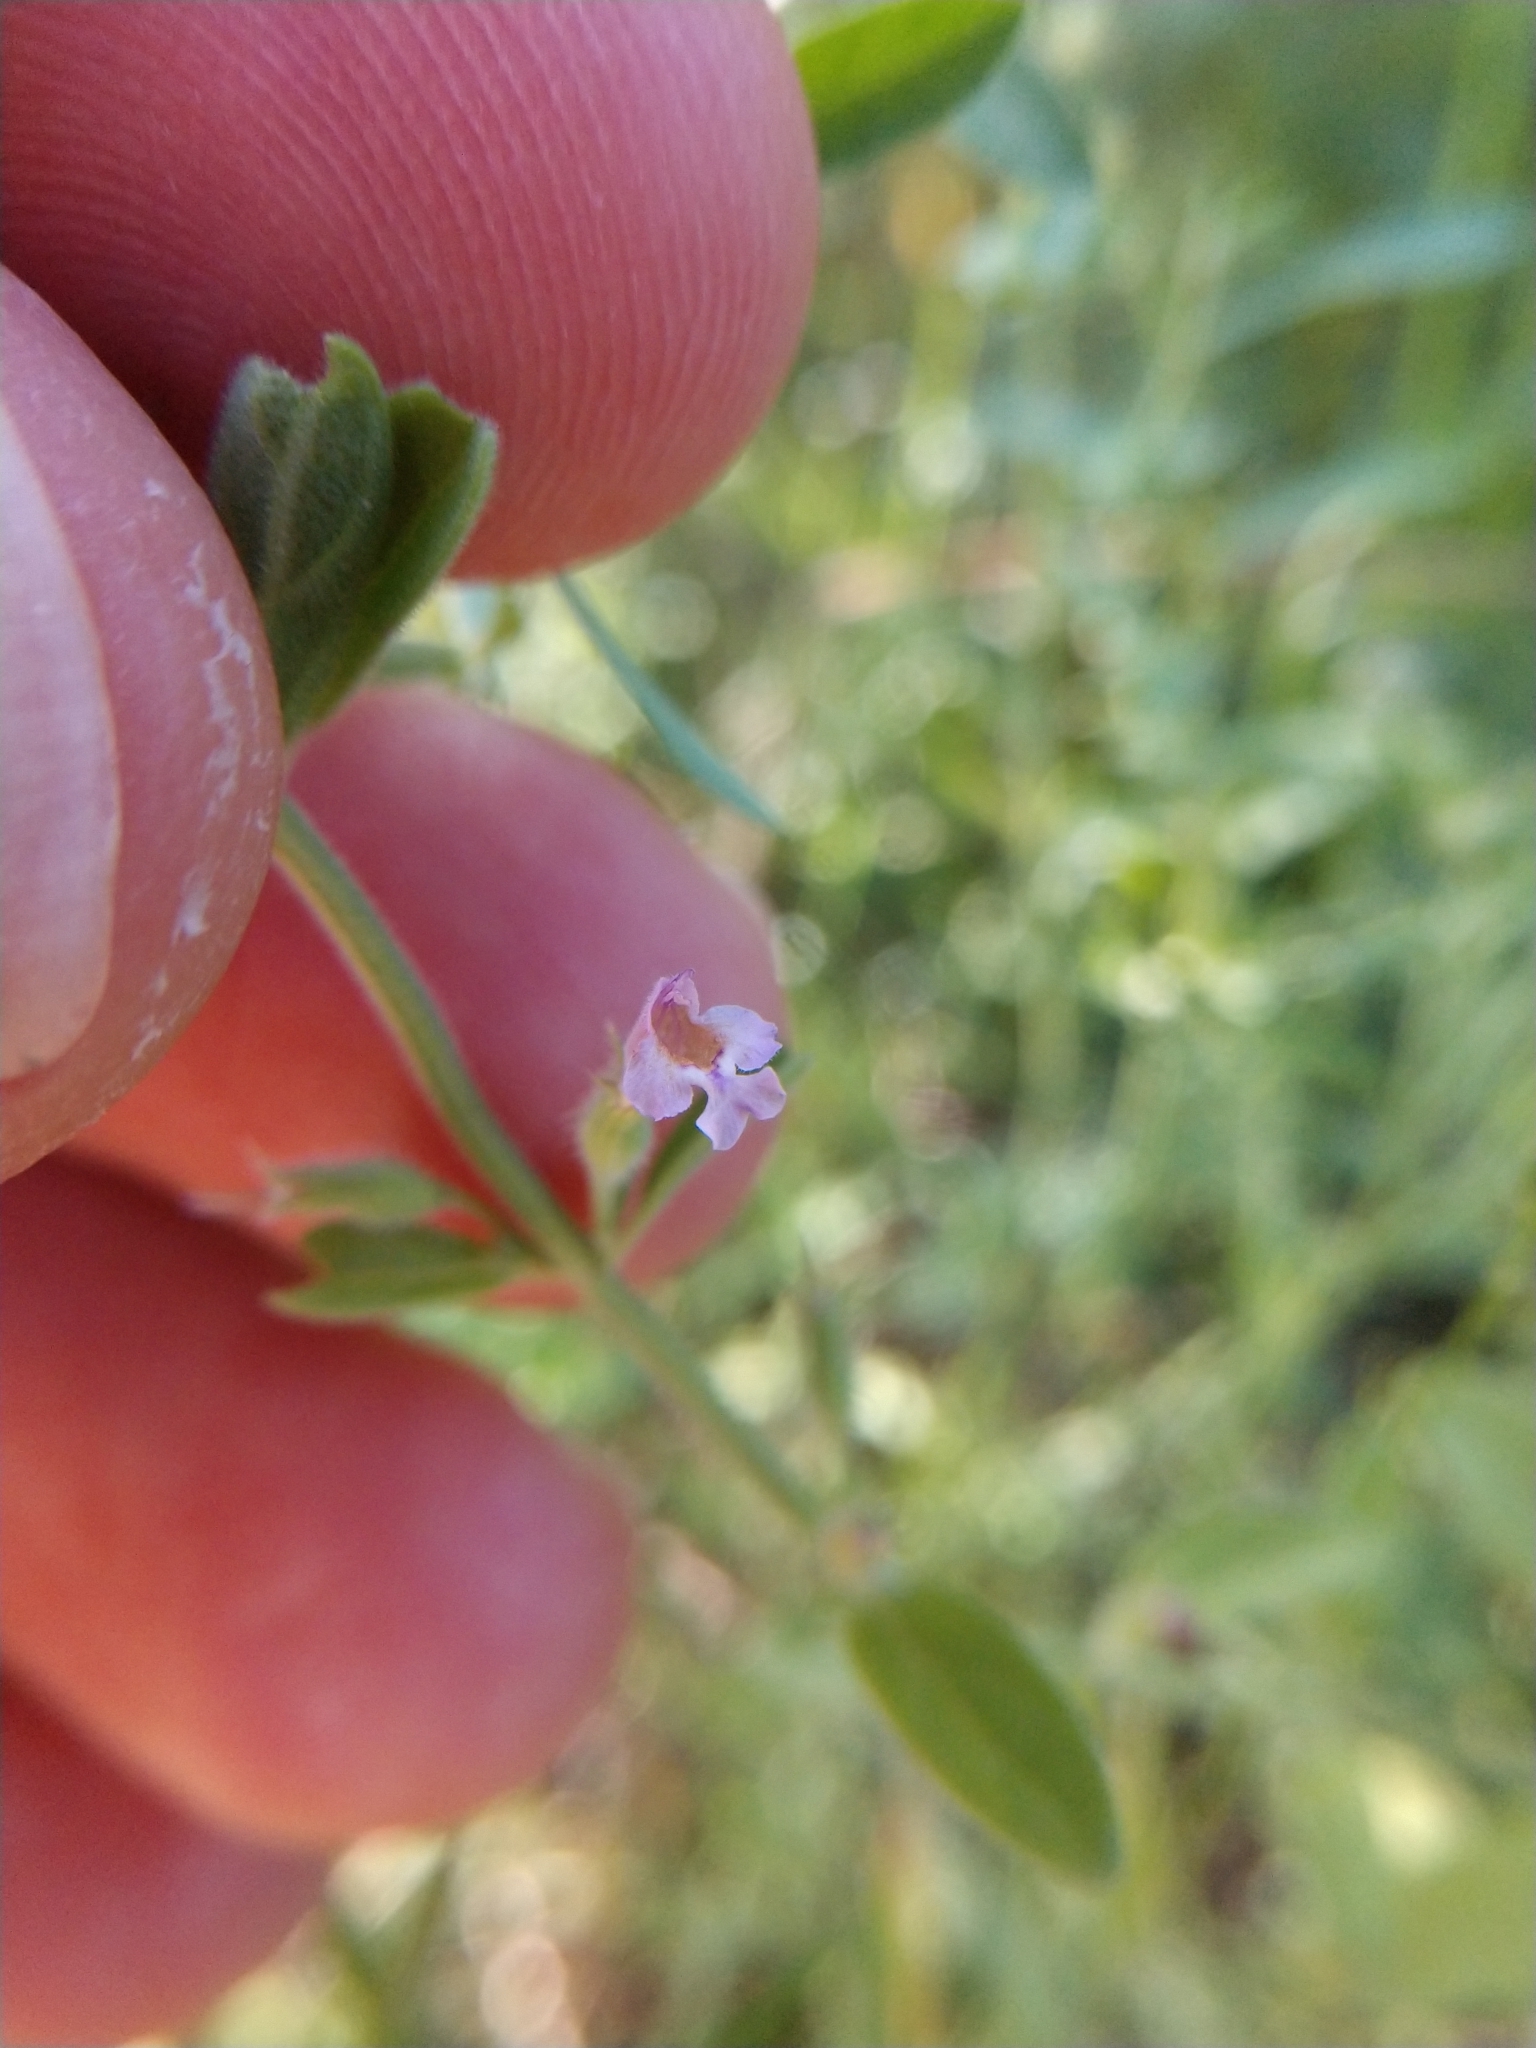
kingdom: Plantae
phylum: Tracheophyta
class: Magnoliopsida
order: Lamiales
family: Lamiaceae
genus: Hedeoma
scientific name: Hedeoma reverchonii
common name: Reverchon's false penny-royal
